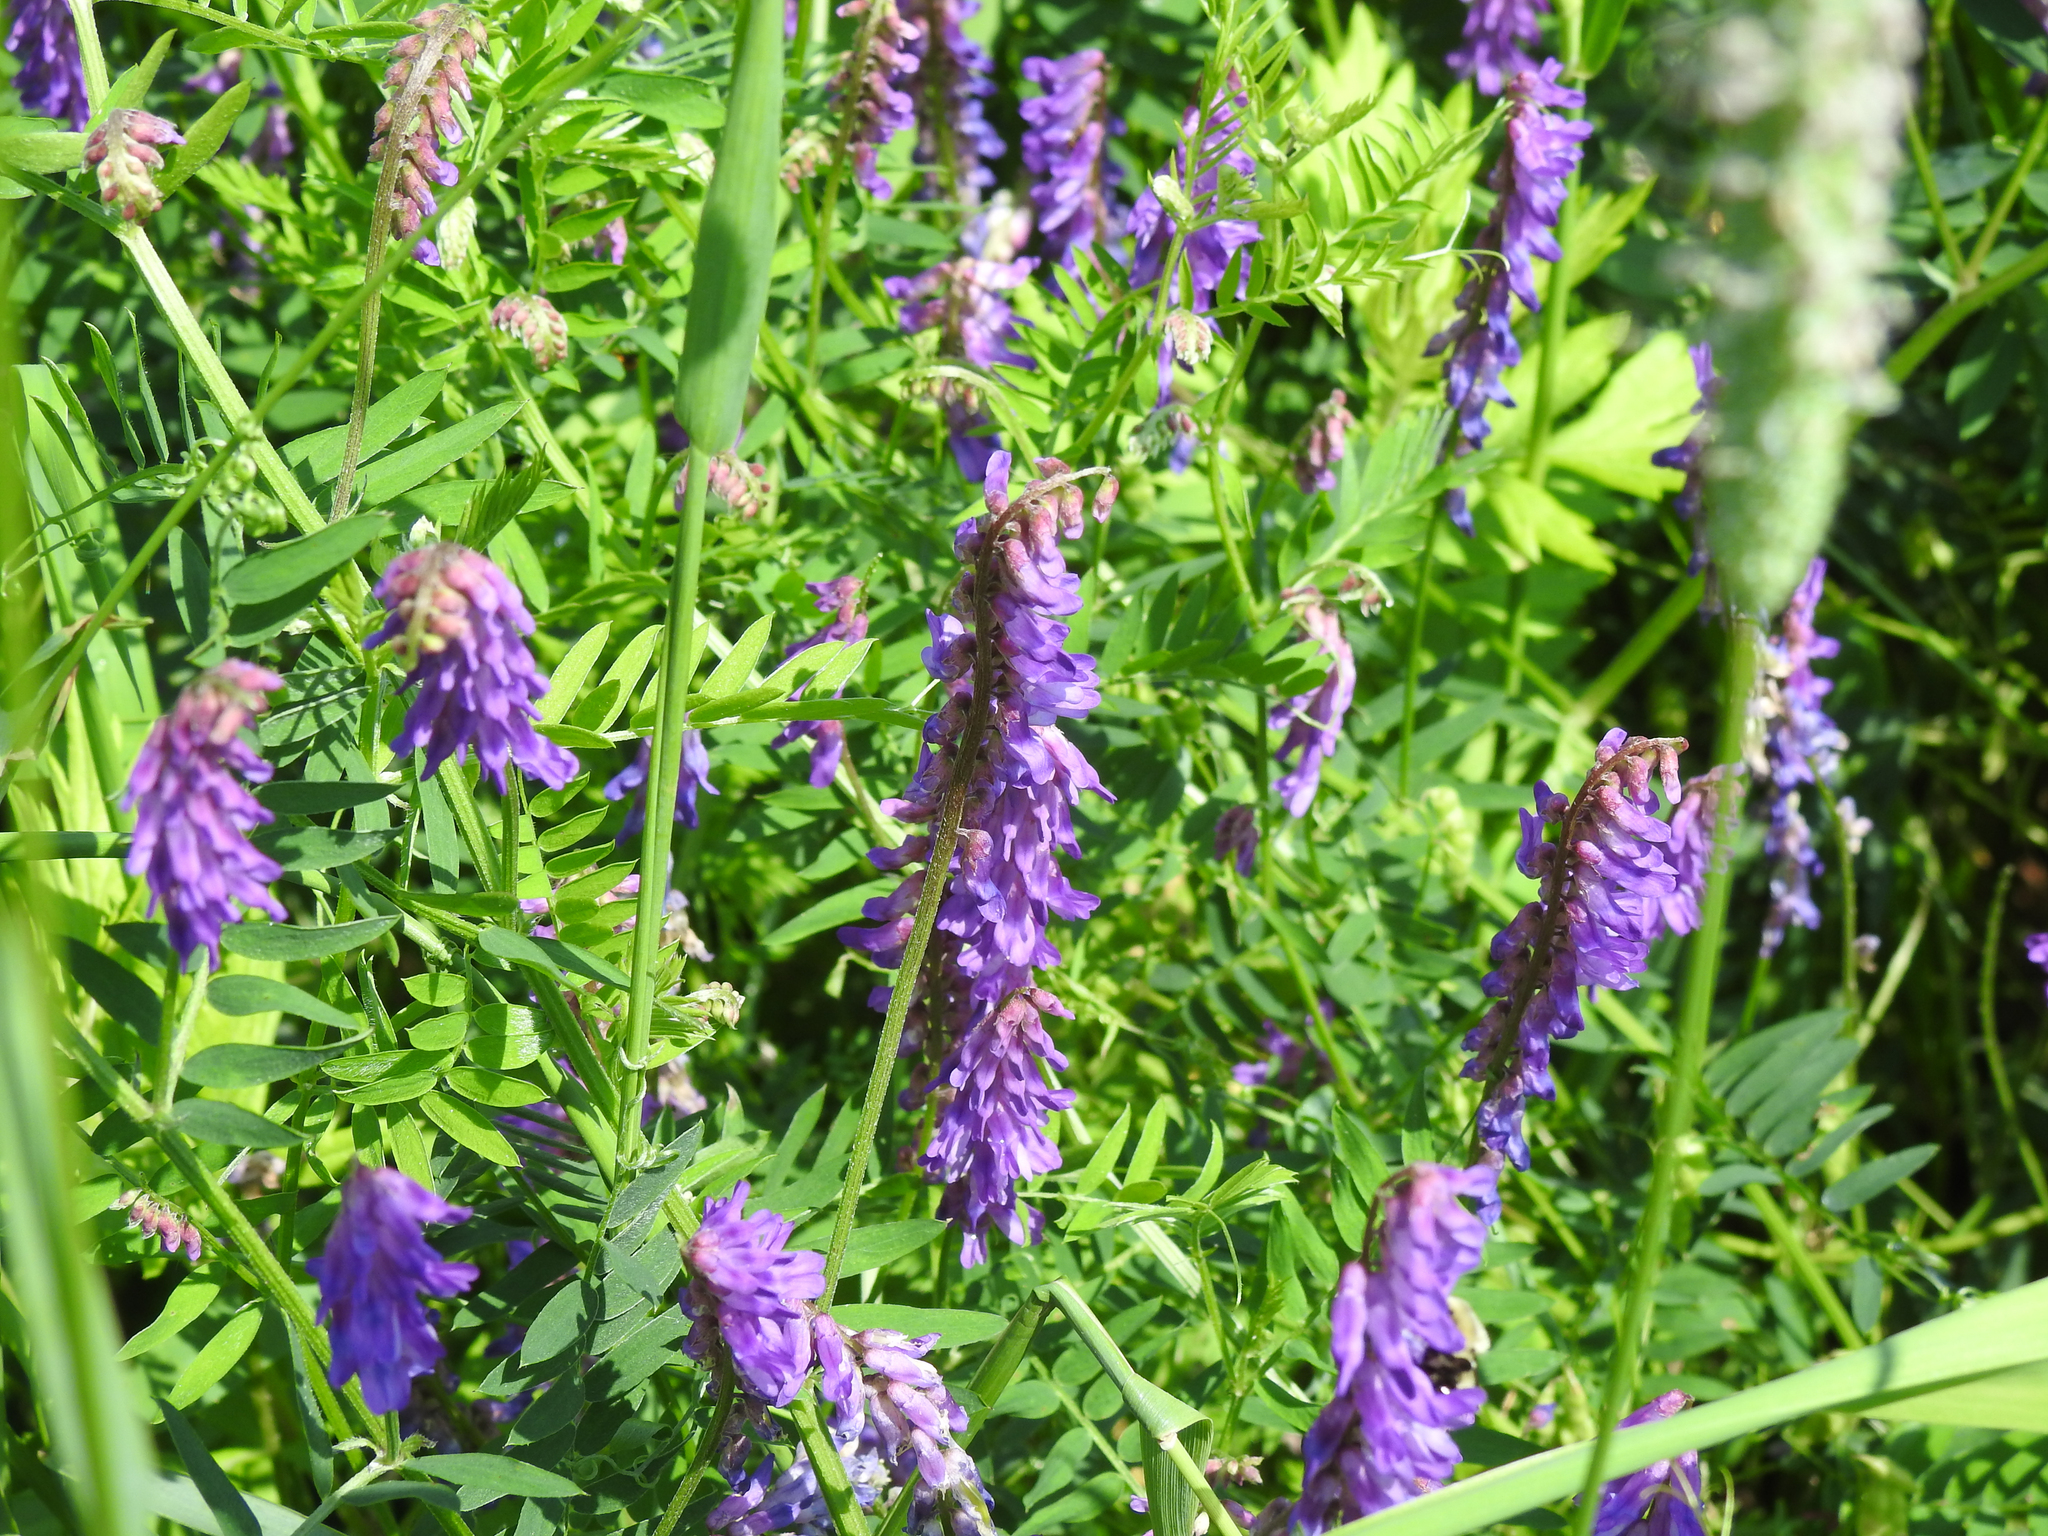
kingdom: Plantae
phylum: Tracheophyta
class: Magnoliopsida
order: Fabales
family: Fabaceae
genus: Vicia
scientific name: Vicia cracca
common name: Bird vetch
